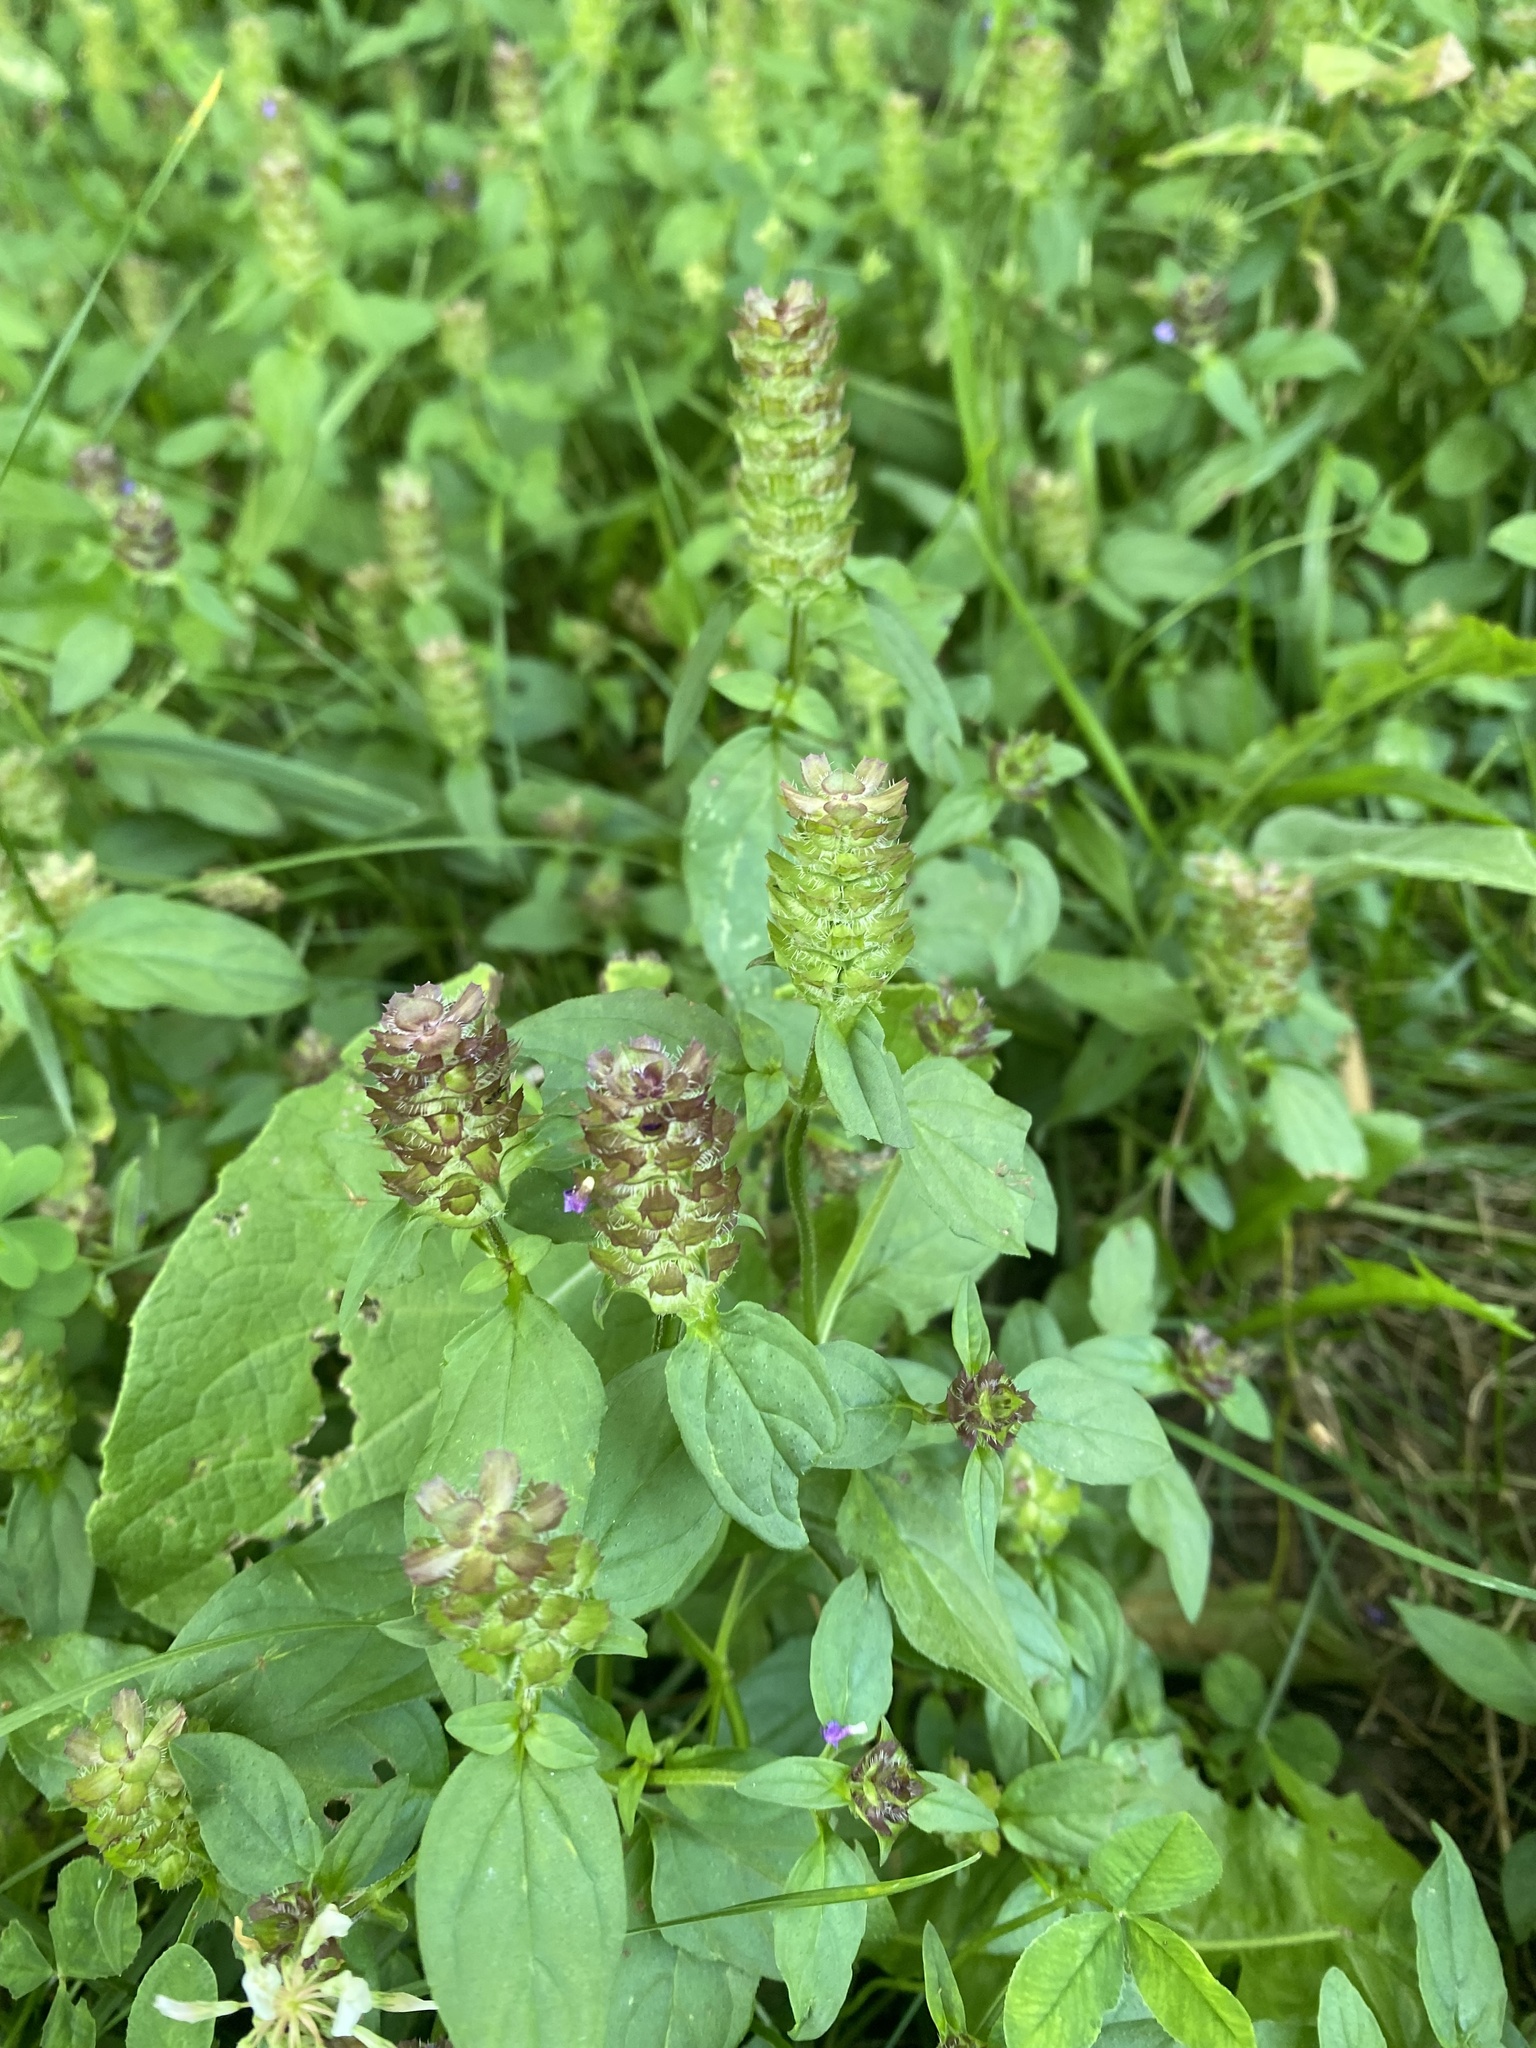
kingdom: Plantae
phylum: Tracheophyta
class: Magnoliopsida
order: Lamiales
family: Lamiaceae
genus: Prunella
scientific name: Prunella vulgaris
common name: Heal-all
